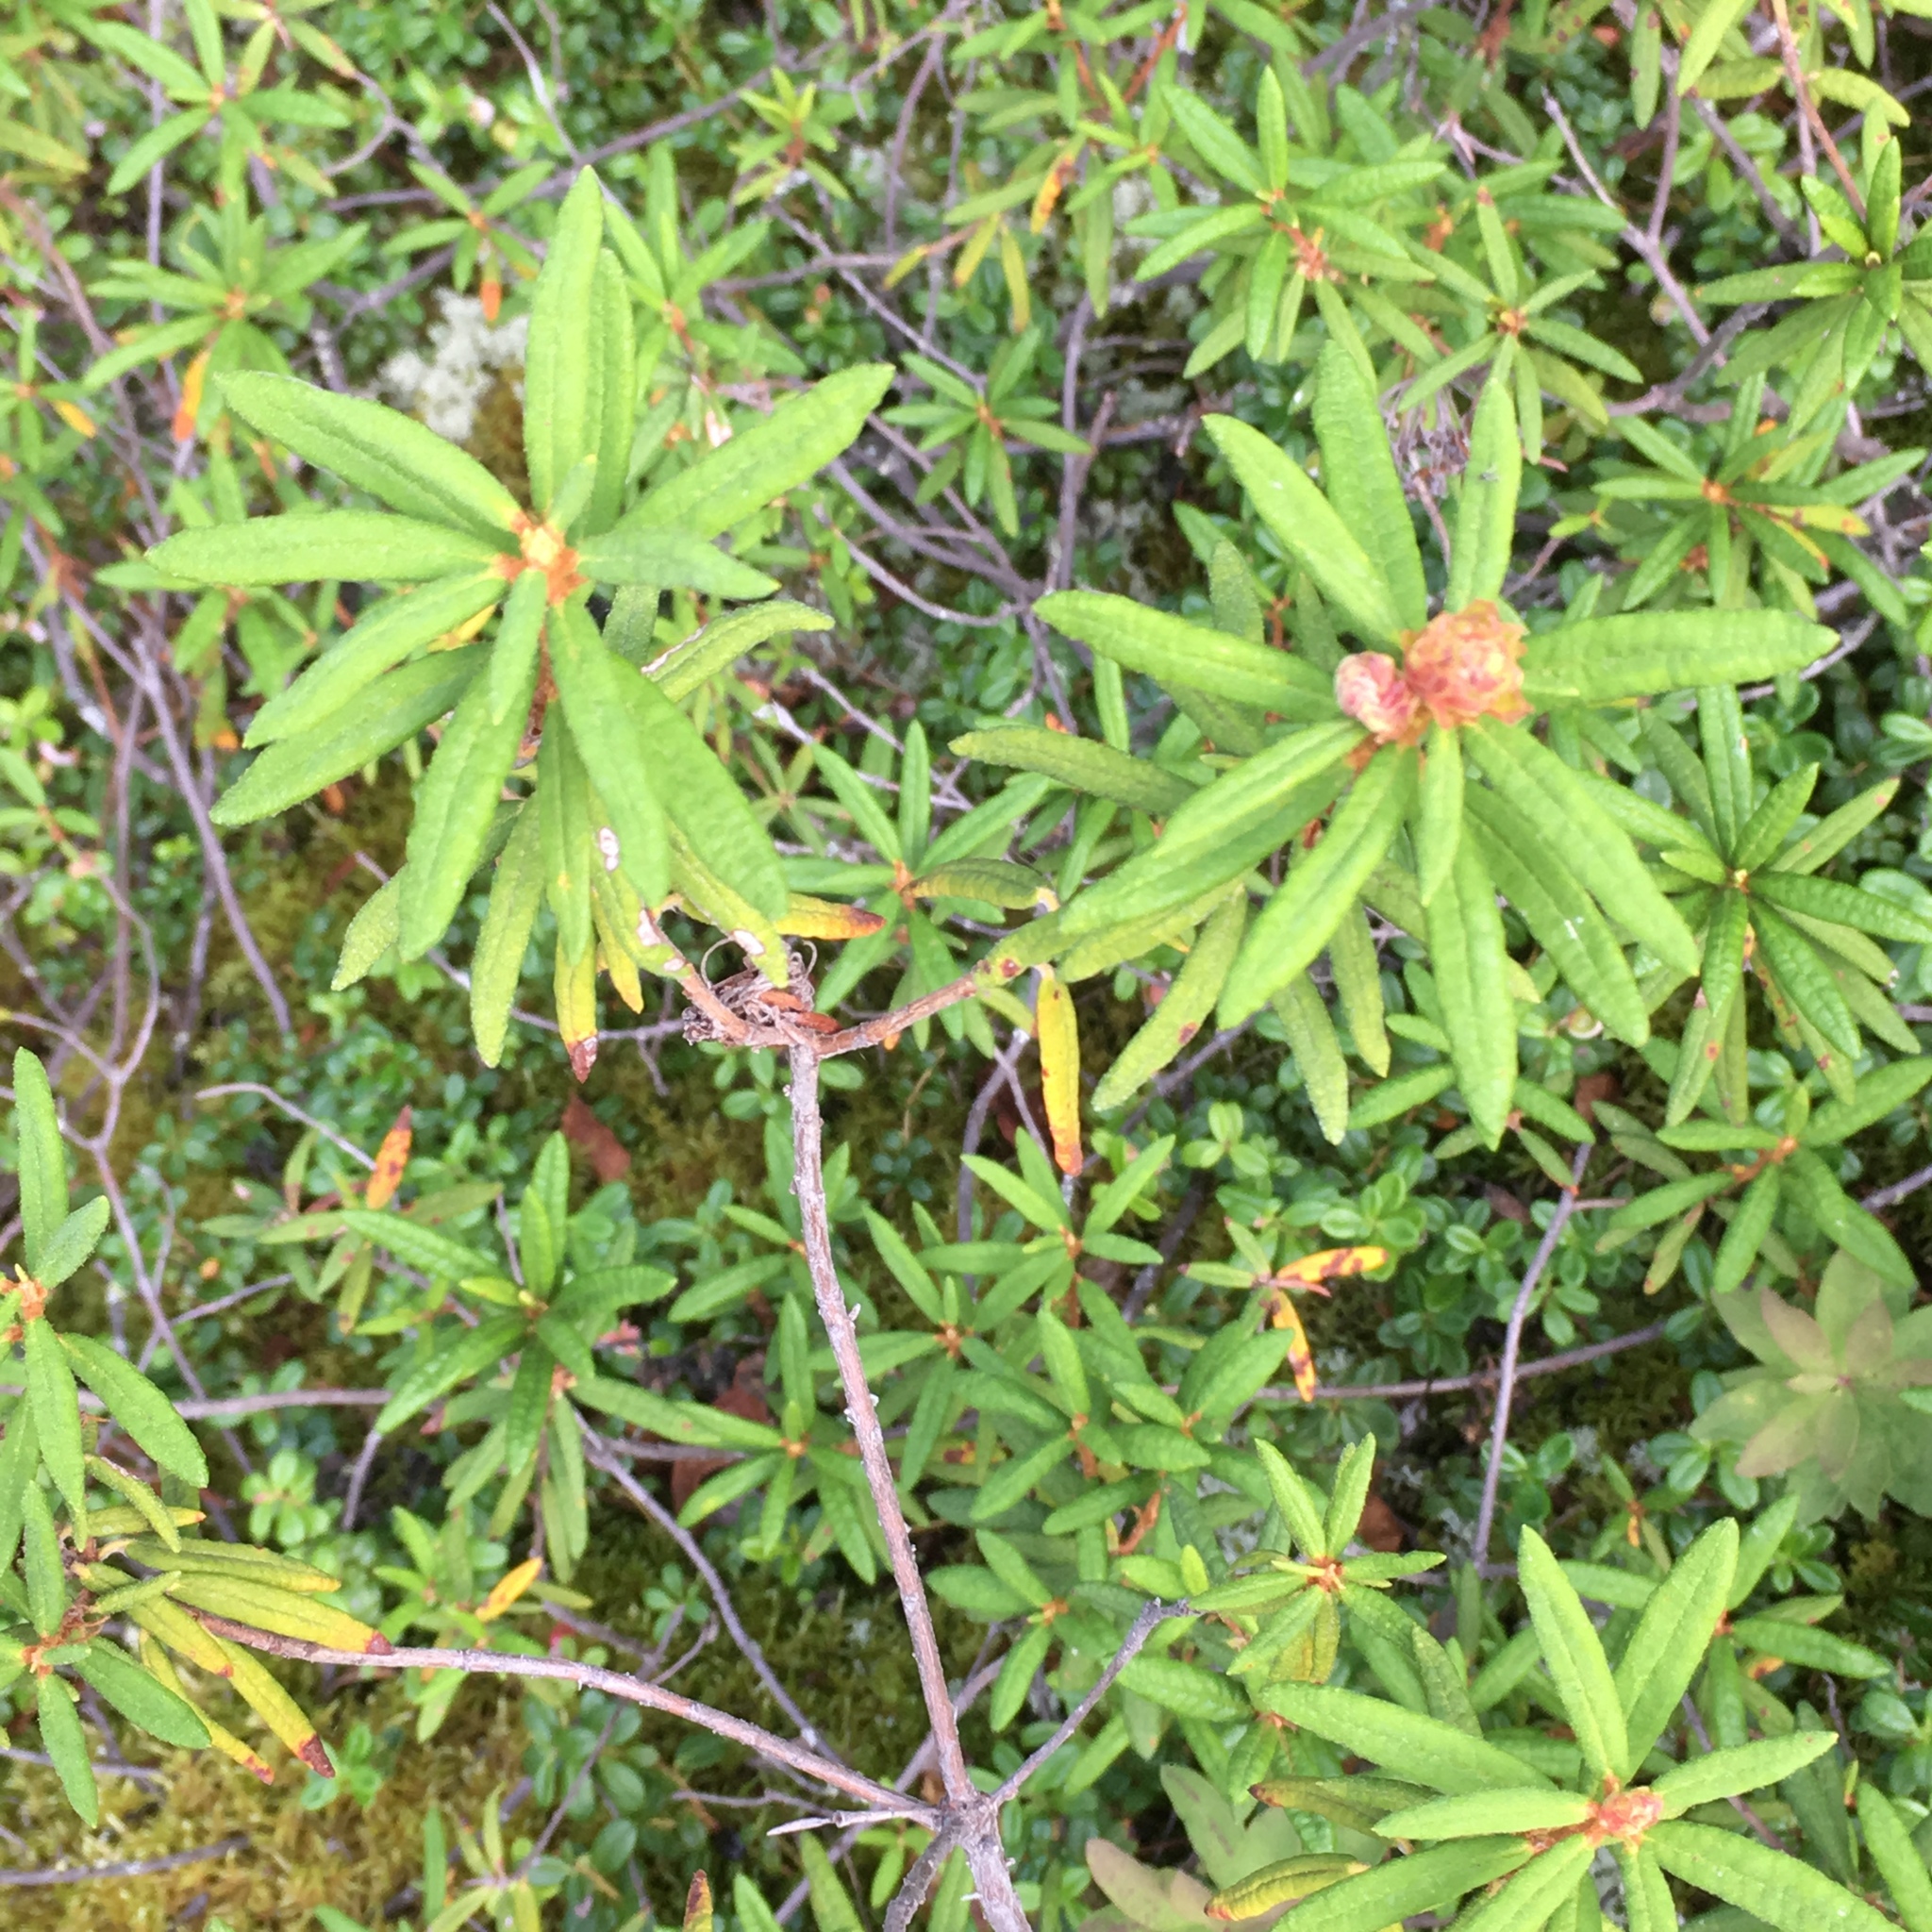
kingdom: Plantae
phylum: Tracheophyta
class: Magnoliopsida
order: Ericales
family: Ericaceae
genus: Rhododendron
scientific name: Rhododendron groenlandicum
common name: Bog labrador tea
